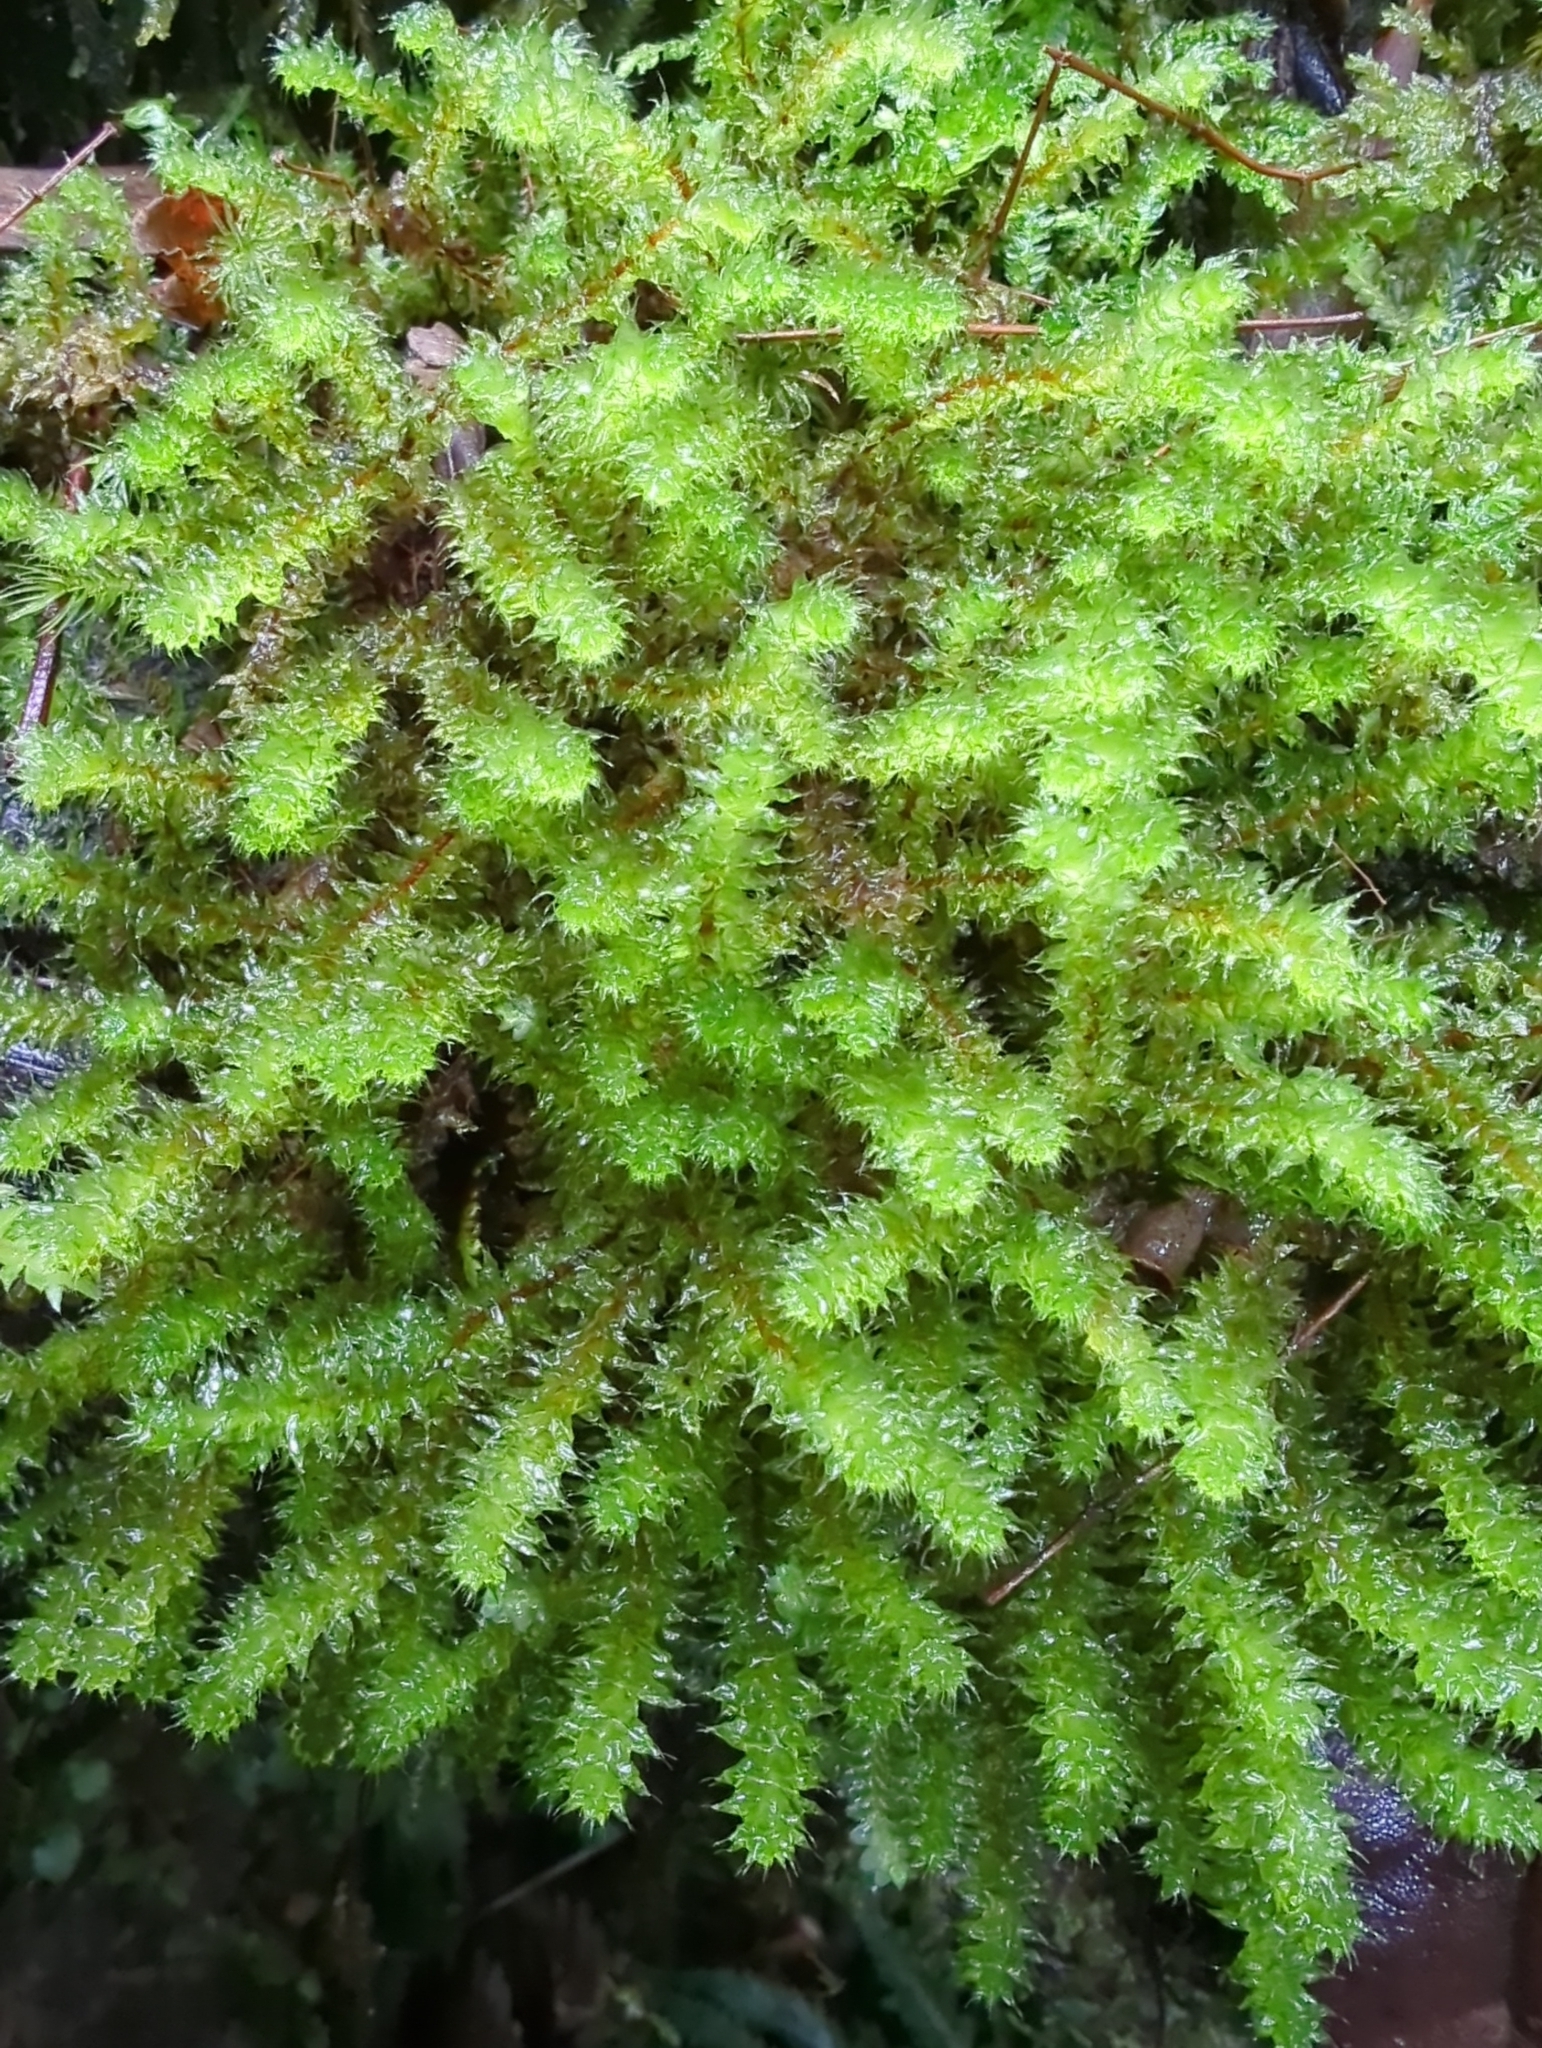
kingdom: Plantae
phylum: Bryophyta
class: Bryopsida
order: Ptychomniales
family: Ptychomniaceae
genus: Ptychomnion
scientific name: Ptychomnion aciculare
